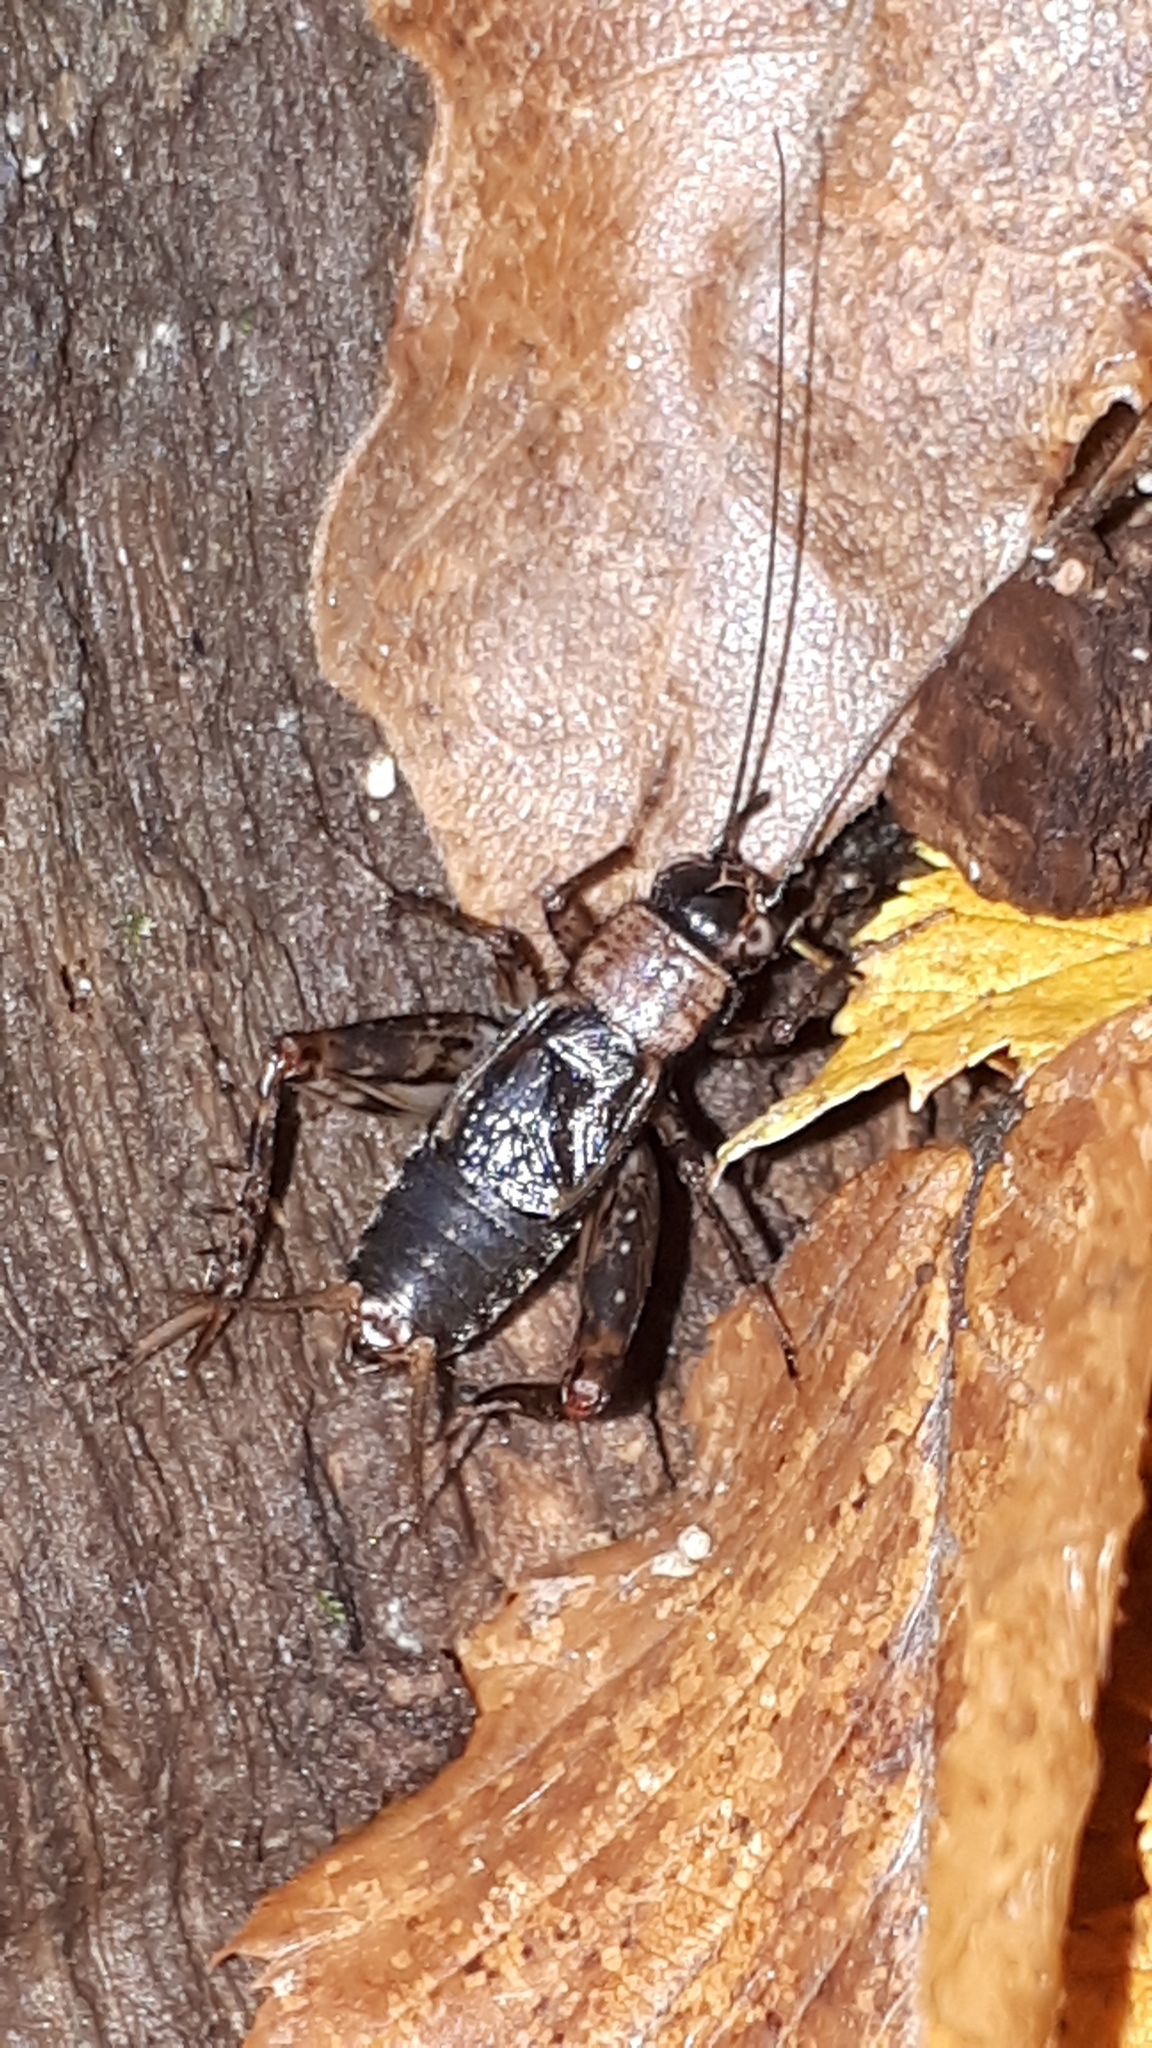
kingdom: Animalia
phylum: Arthropoda
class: Insecta
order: Orthoptera
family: Trigonidiidae
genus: Nemobius
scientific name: Nemobius sylvestris
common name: Wood-cricket
